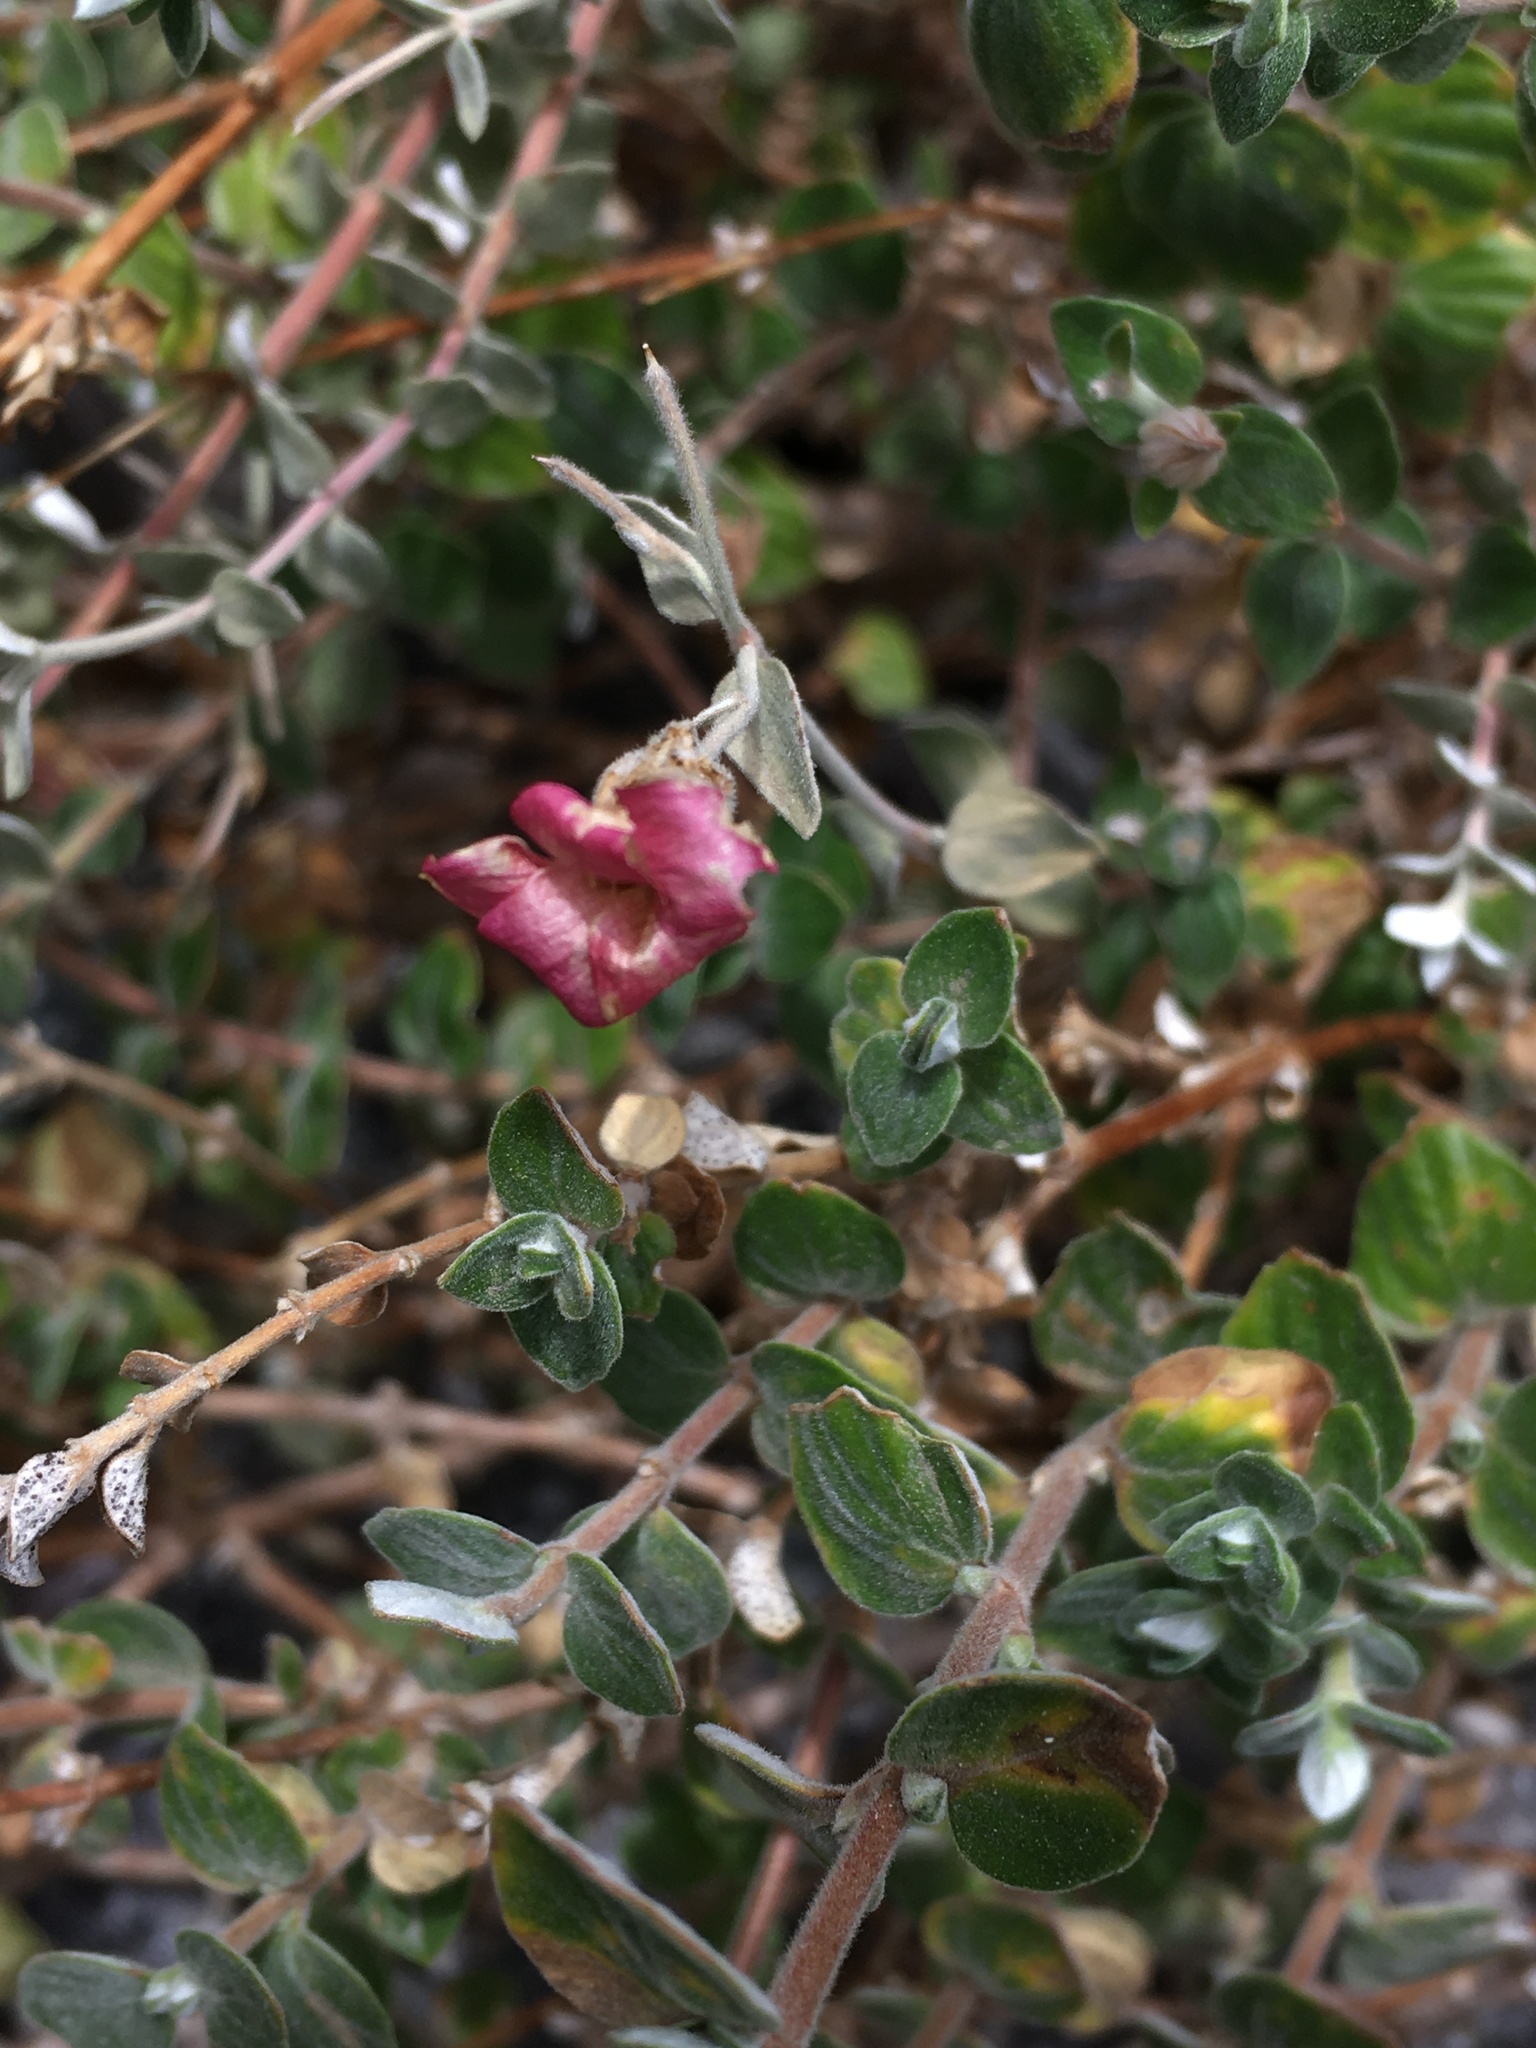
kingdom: Plantae
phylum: Tracheophyta
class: Magnoliopsida
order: Geraniales
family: Vivianiaceae
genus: Viviania
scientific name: Viviania marifolia
